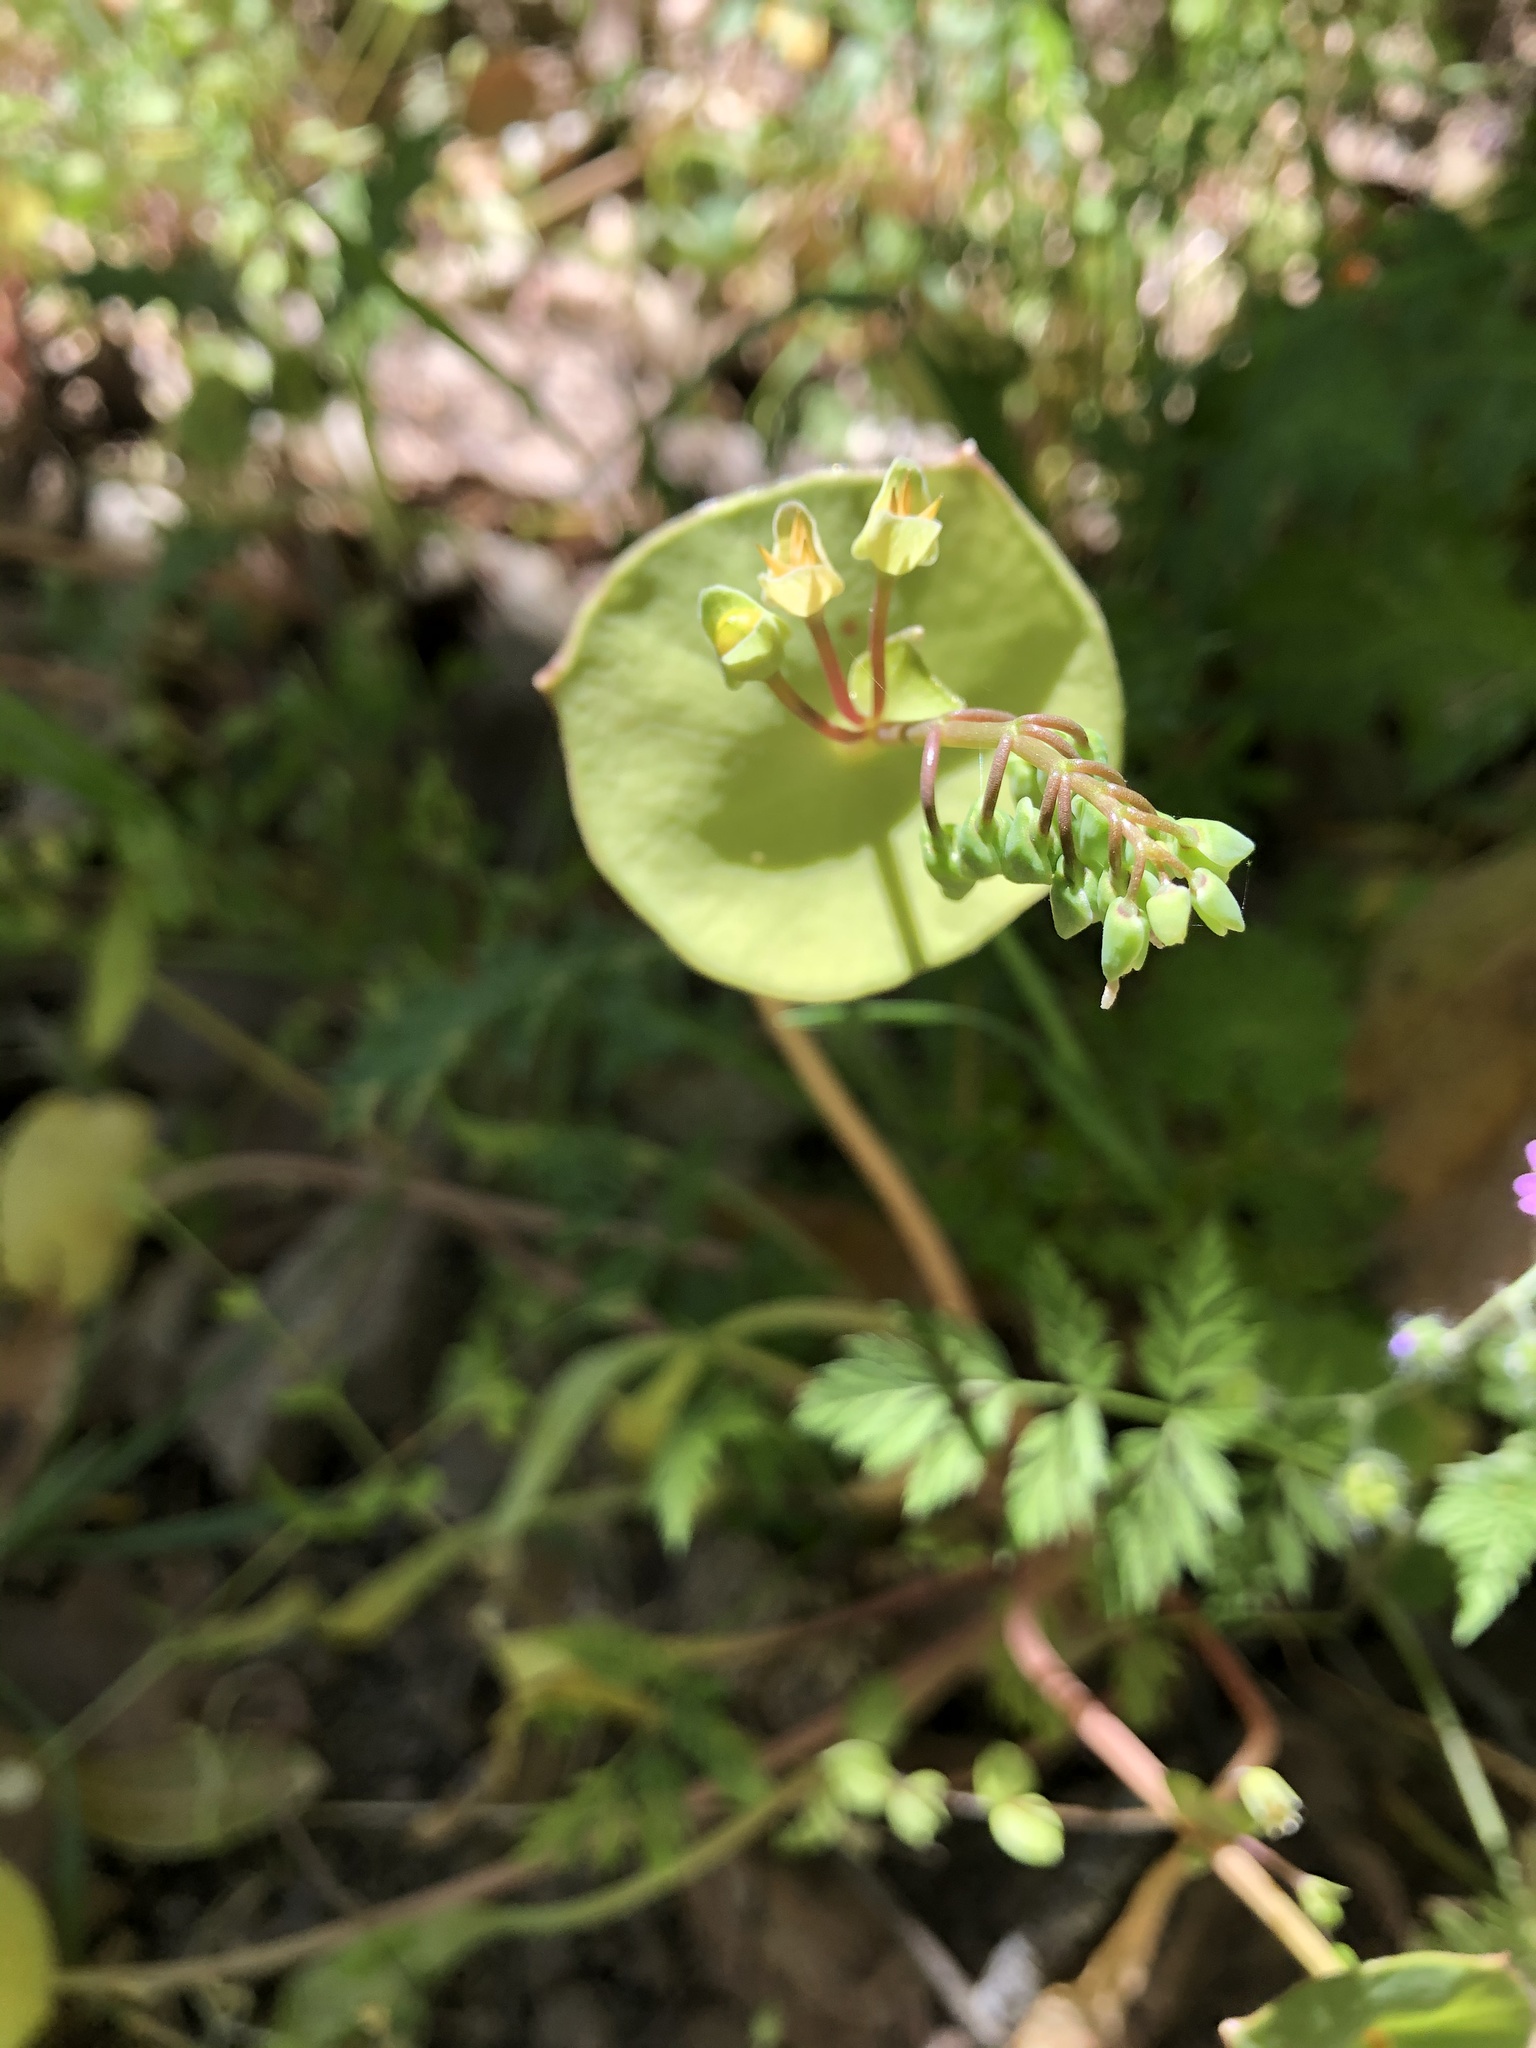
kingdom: Plantae
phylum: Tracheophyta
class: Magnoliopsida
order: Caryophyllales
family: Montiaceae
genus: Claytonia
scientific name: Claytonia perfoliata
